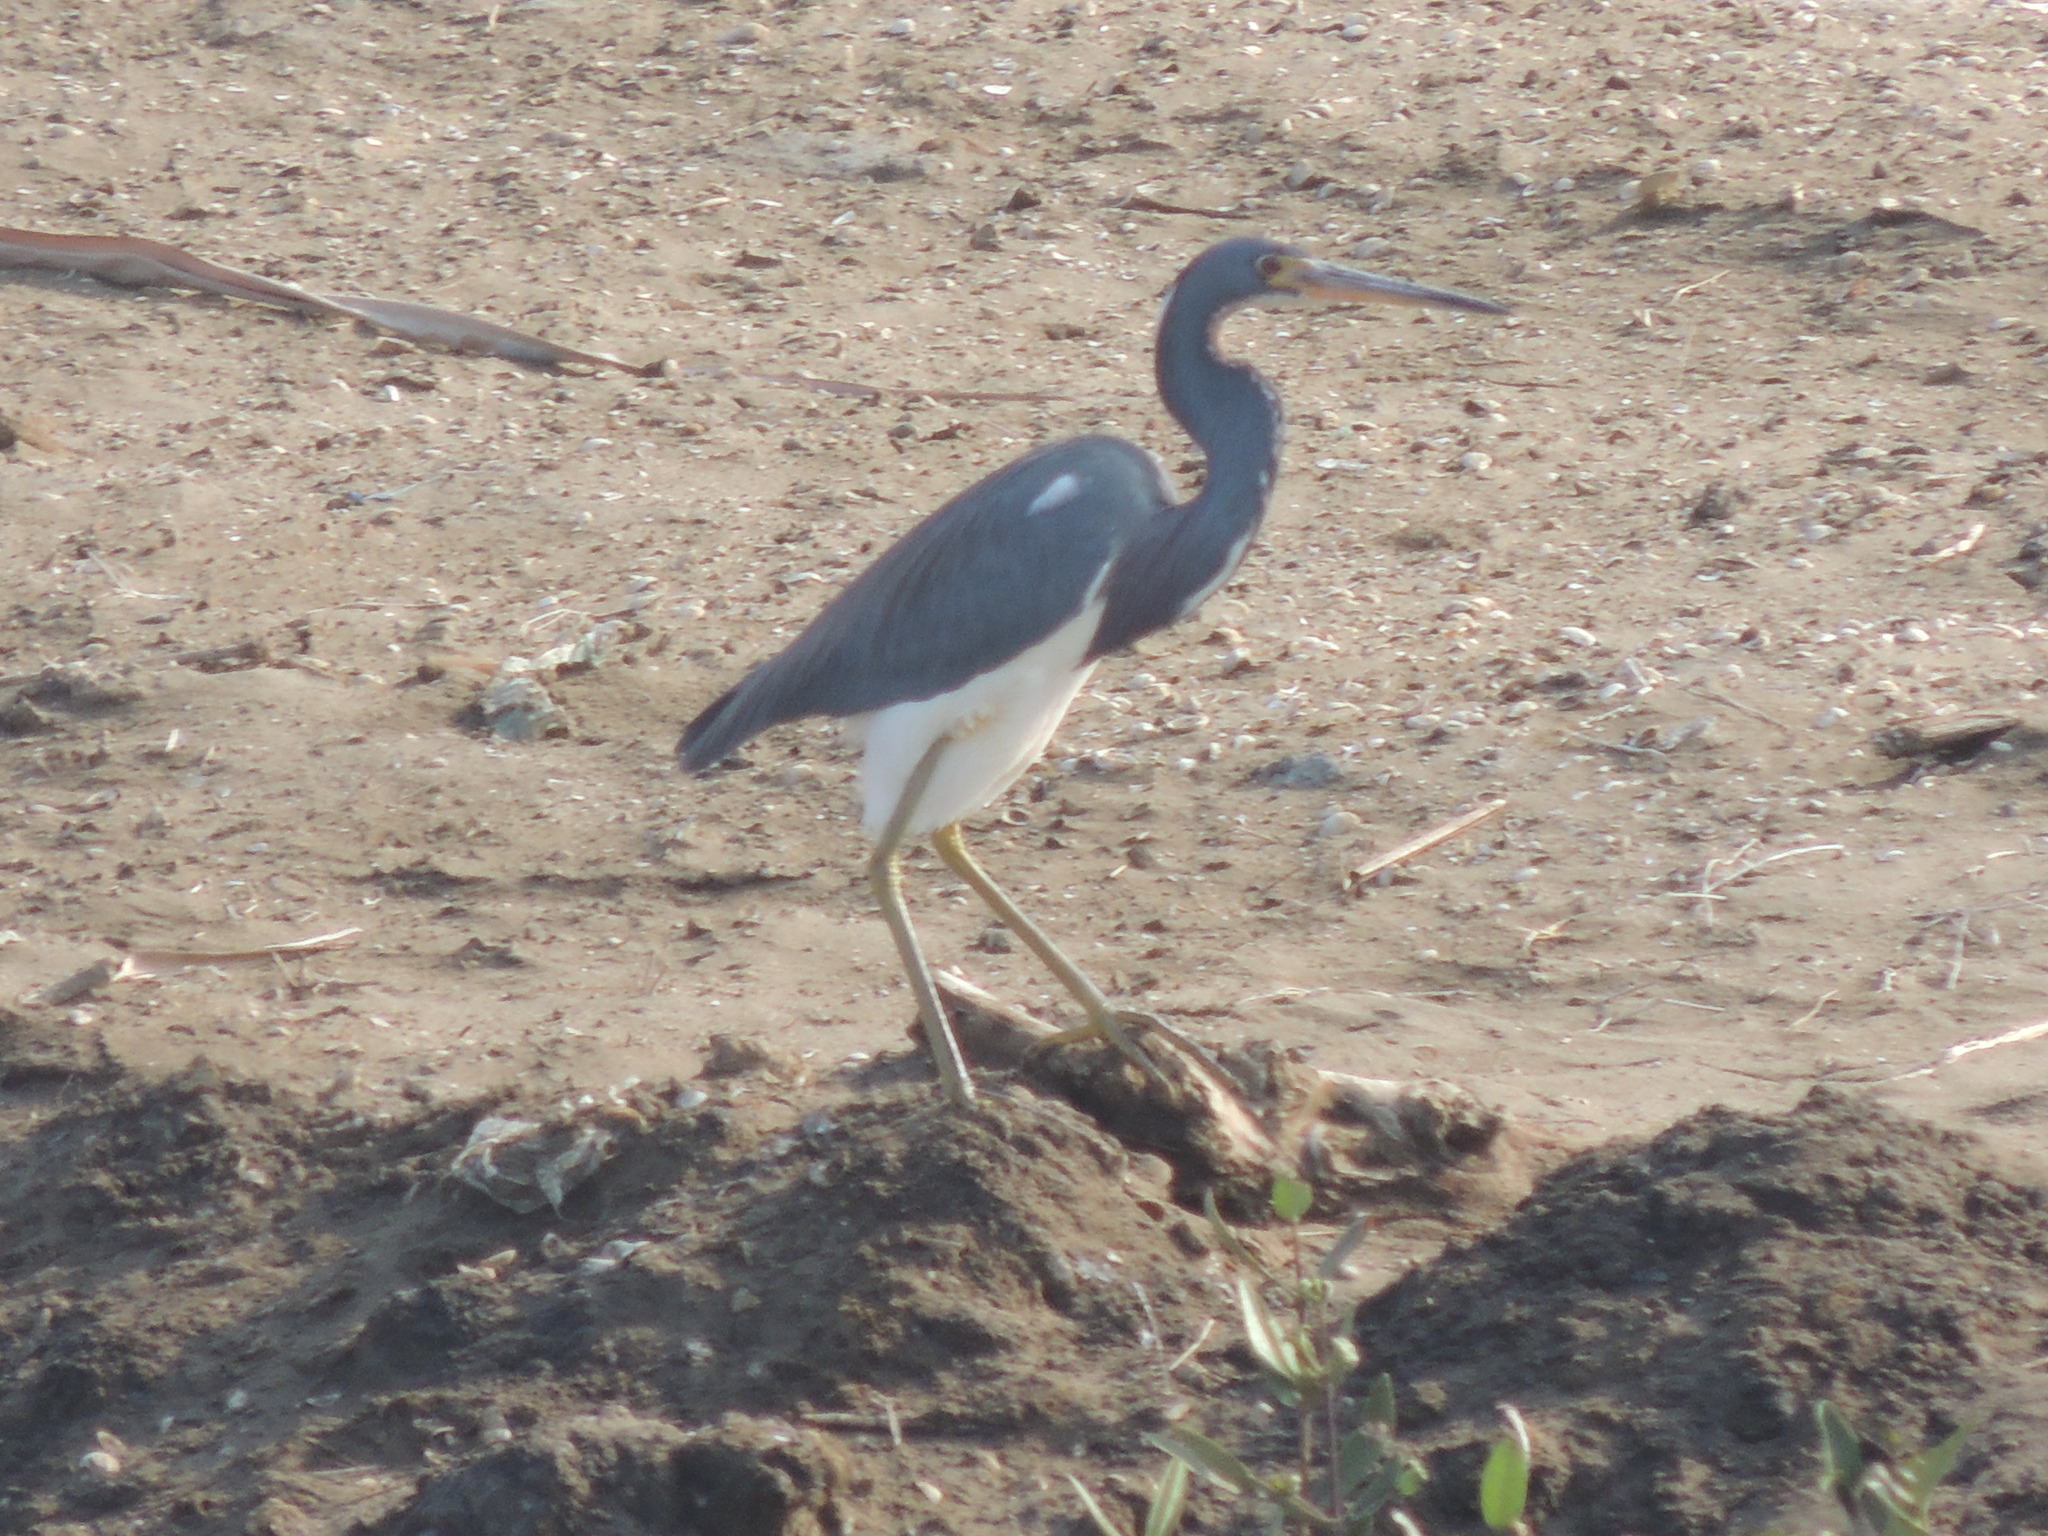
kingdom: Animalia
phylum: Chordata
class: Aves
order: Pelecaniformes
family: Ardeidae
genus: Egretta
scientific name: Egretta tricolor
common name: Tricolored heron
